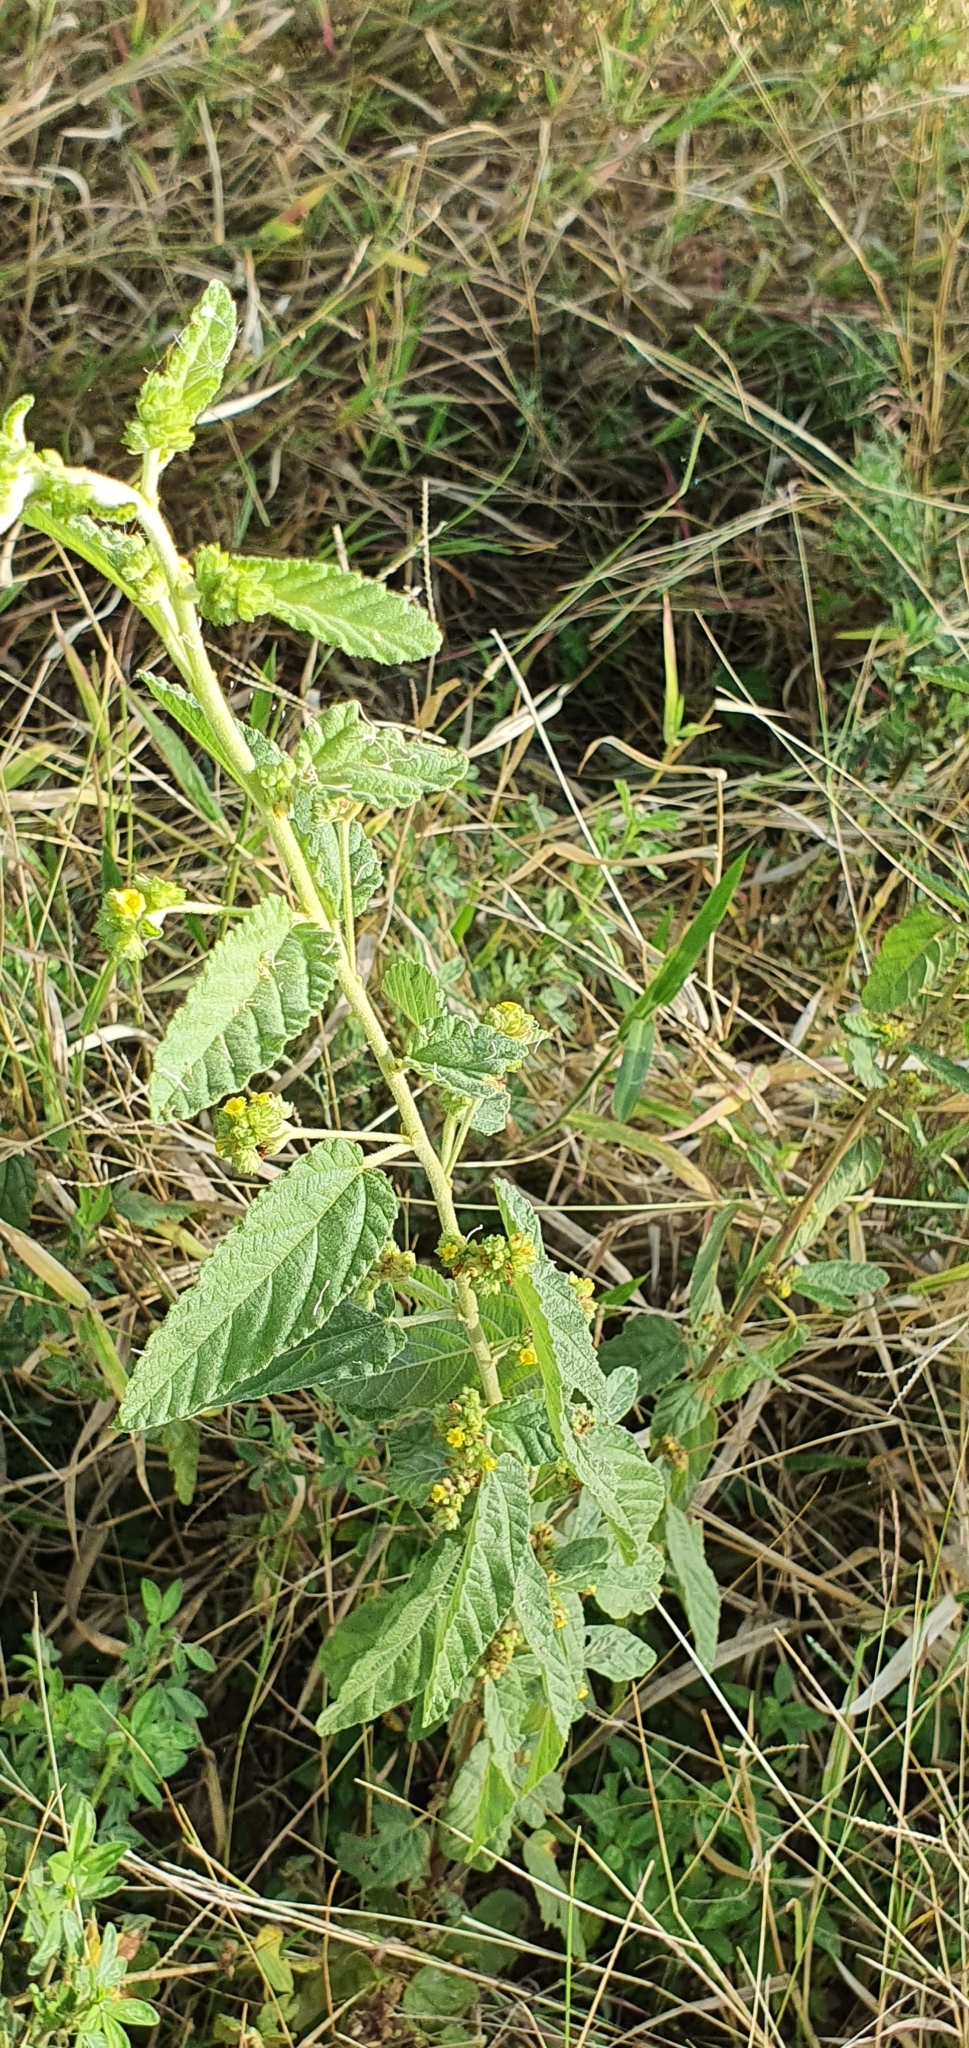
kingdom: Plantae
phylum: Tracheophyta
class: Magnoliopsida
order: Malvales
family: Malvaceae
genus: Waltheria
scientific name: Waltheria indica
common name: Leather-coat
